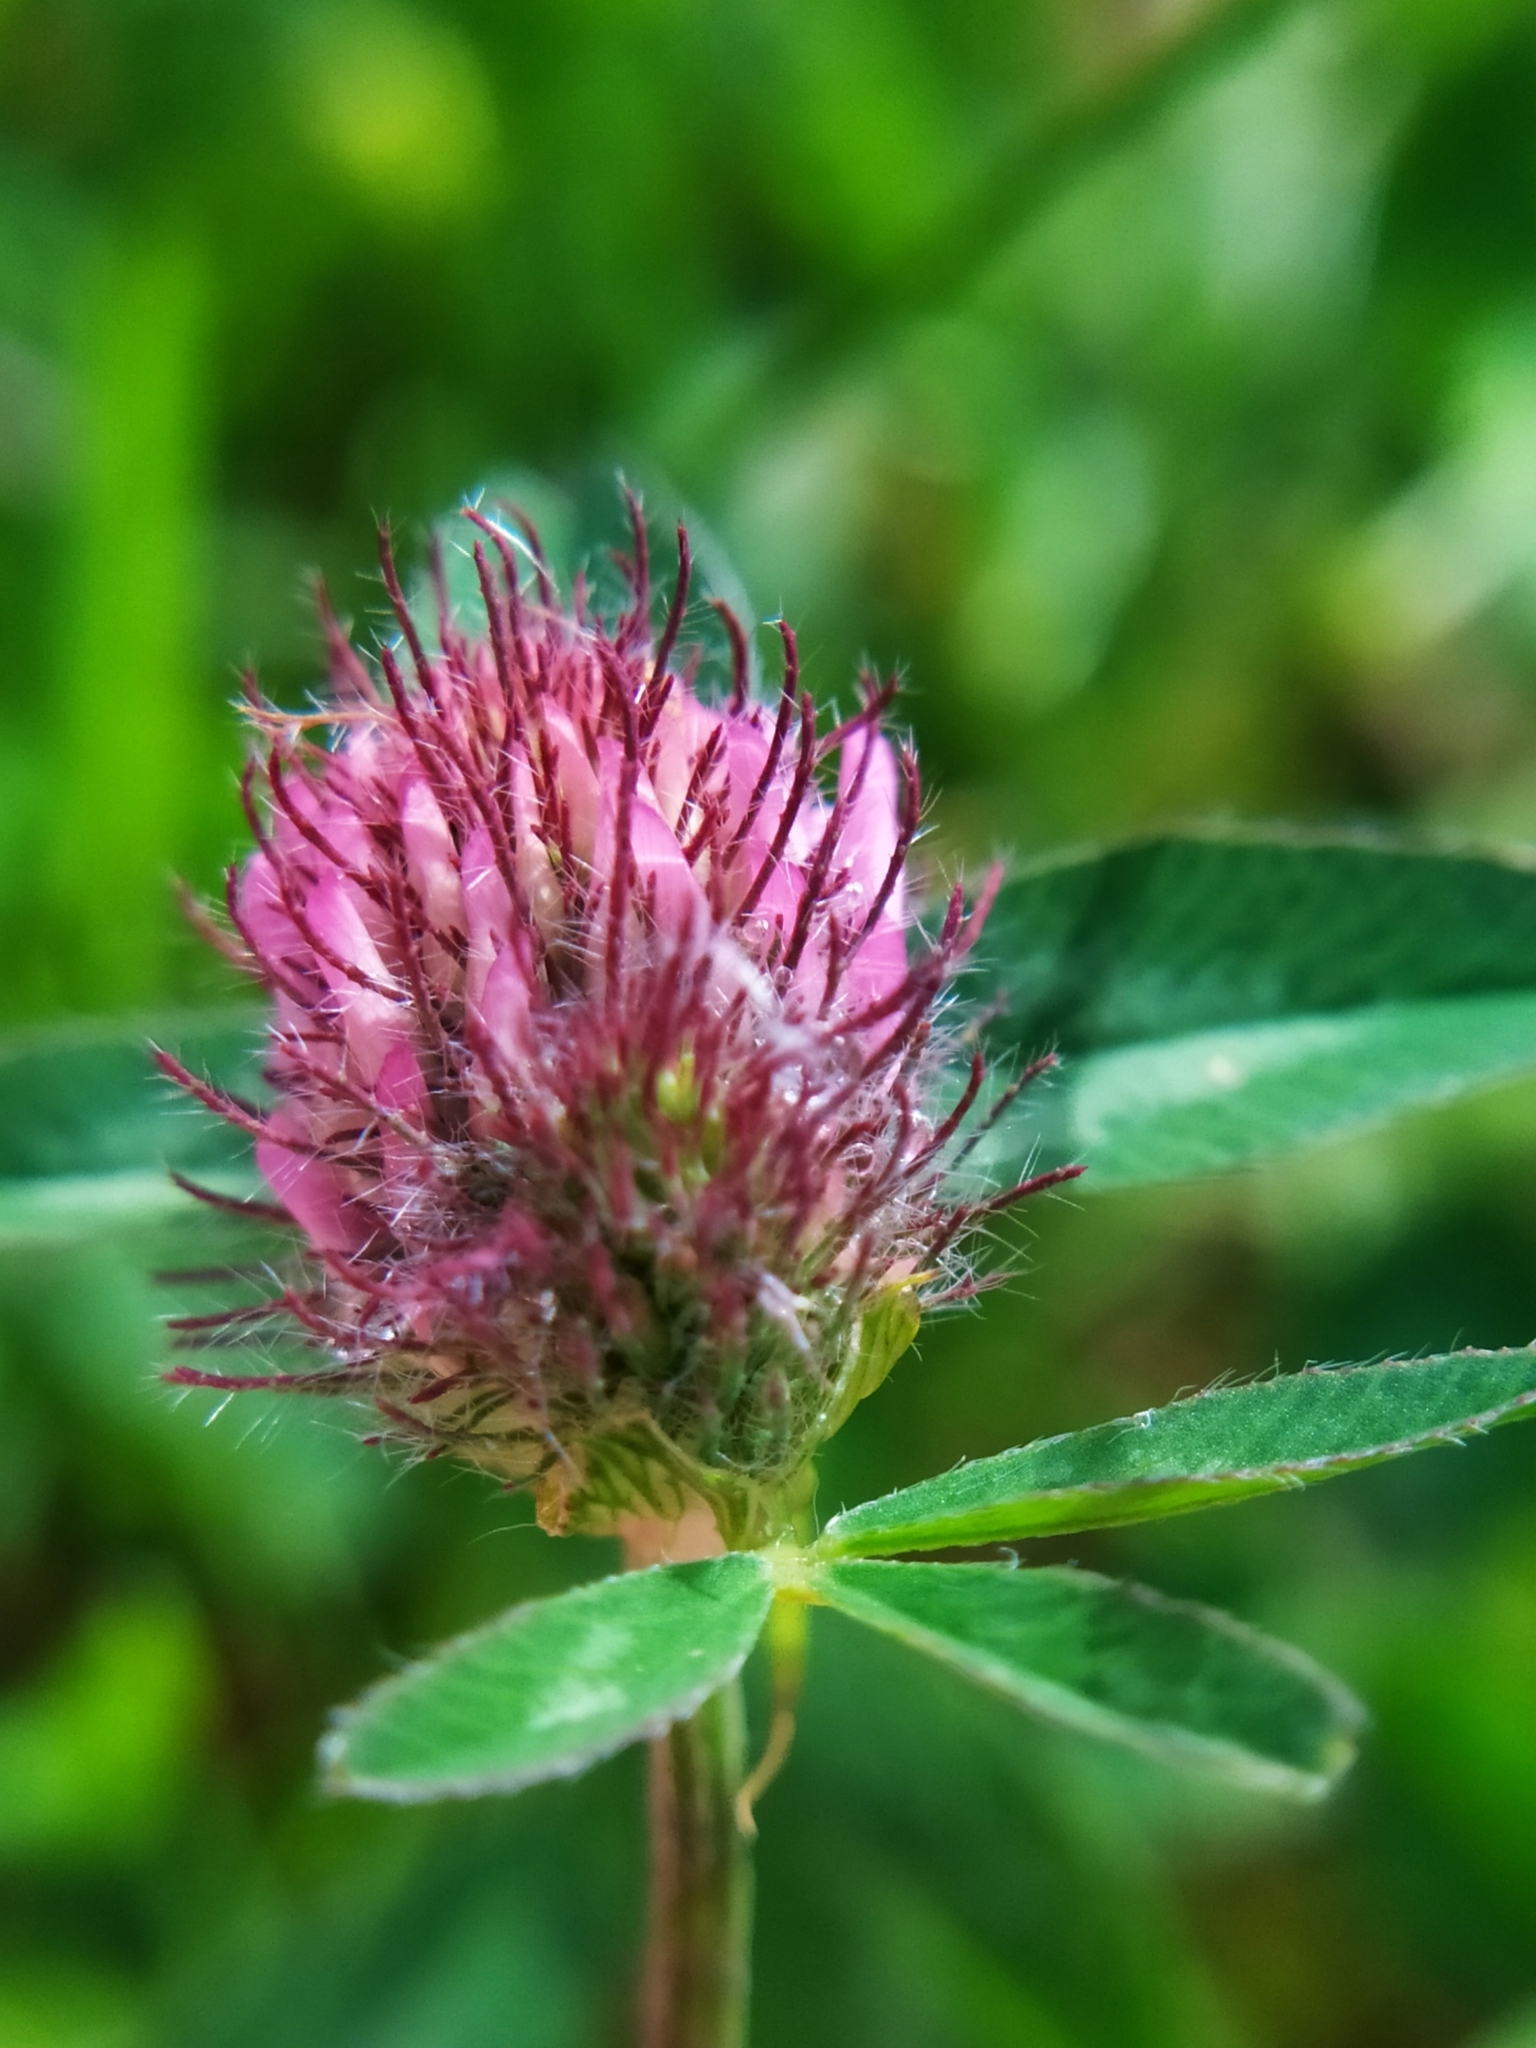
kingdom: Plantae
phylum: Tracheophyta
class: Magnoliopsida
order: Fabales
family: Fabaceae
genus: Trifolium
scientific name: Trifolium pratense
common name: Red clover
